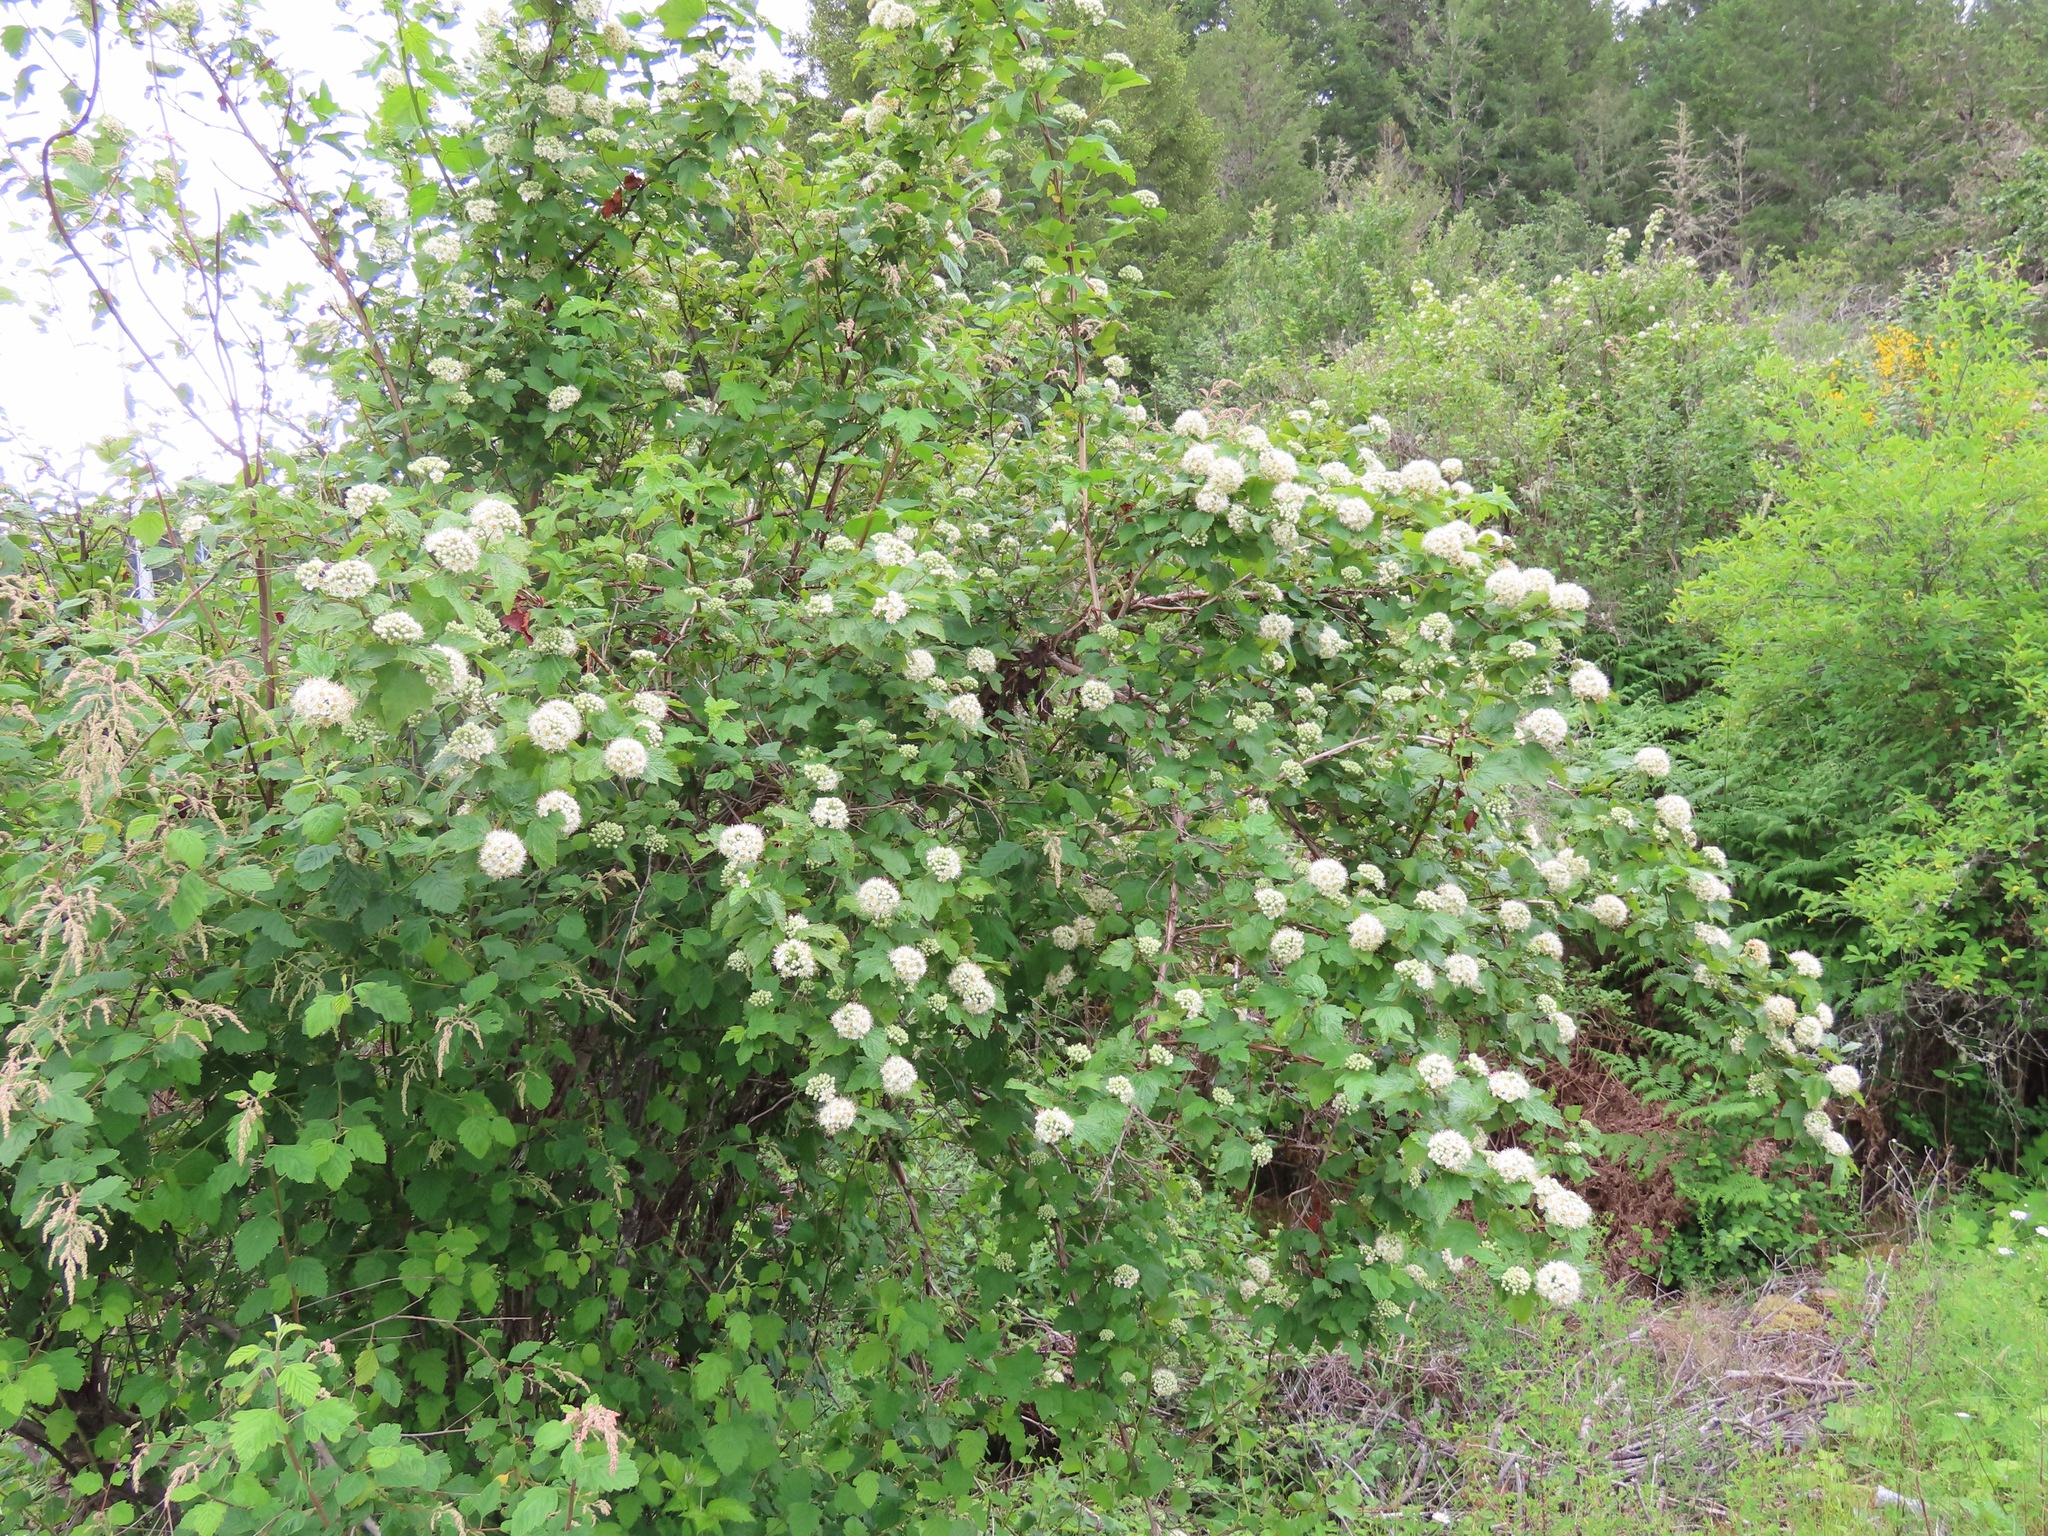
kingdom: Plantae
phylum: Tracheophyta
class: Magnoliopsida
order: Rosales
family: Rosaceae
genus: Physocarpus
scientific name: Physocarpus capitatus
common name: Pacific ninebark
